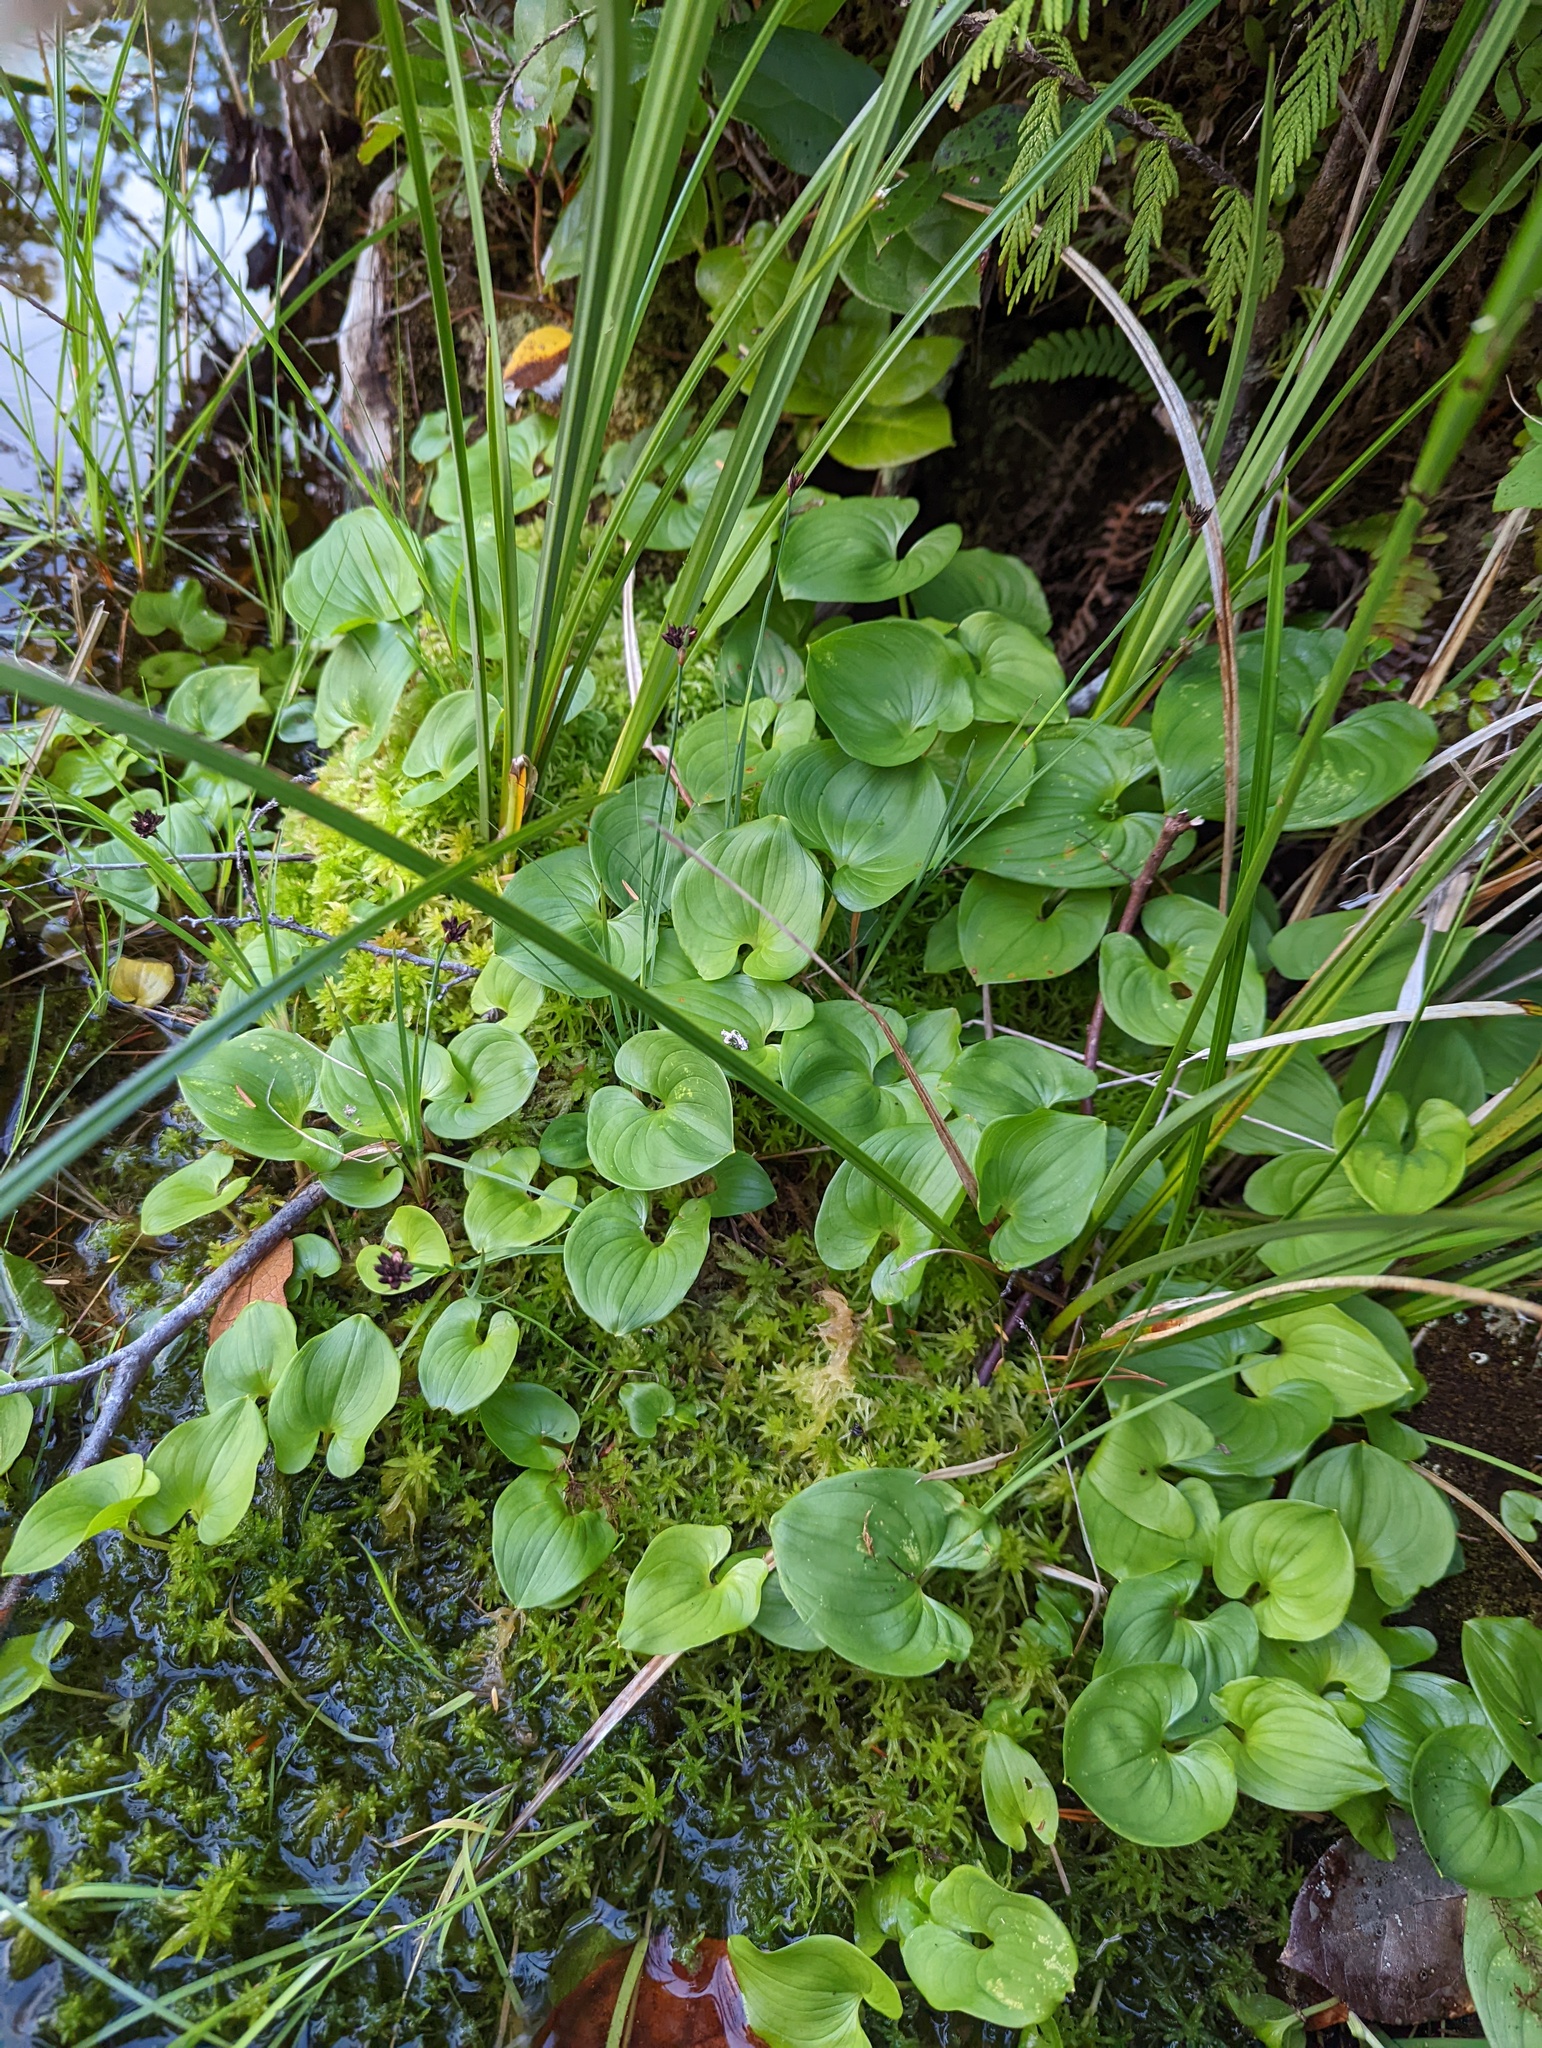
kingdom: Plantae
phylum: Tracheophyta
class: Magnoliopsida
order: Asterales
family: Menyanthaceae
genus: Nephrophyllidium
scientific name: Nephrophyllidium crista-galli
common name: Deer-cabbage
